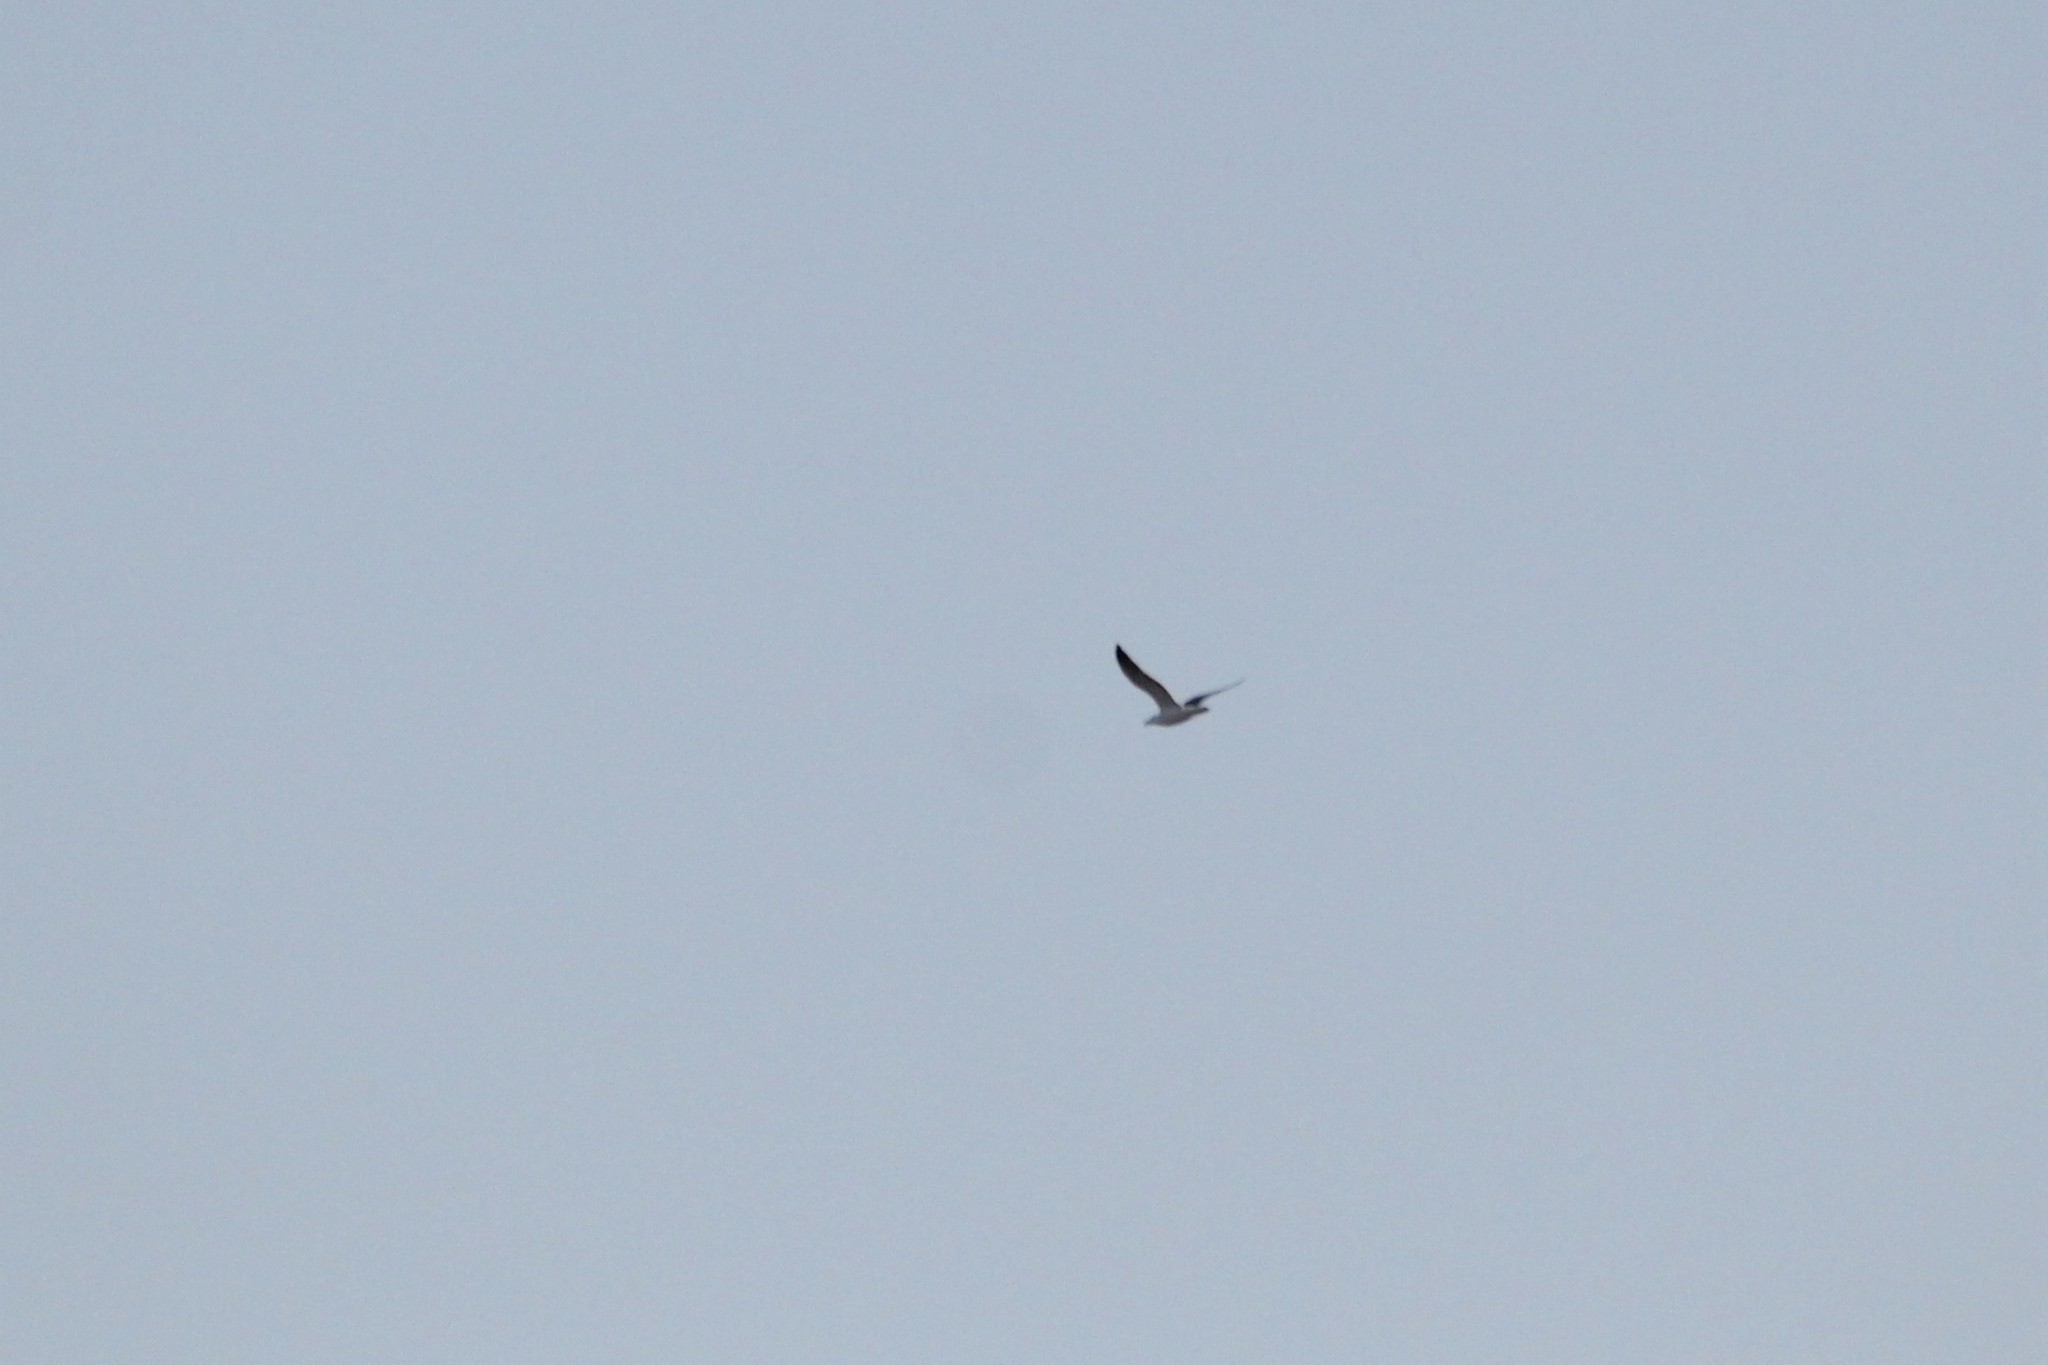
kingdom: Animalia
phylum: Chordata
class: Aves
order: Charadriiformes
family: Laridae
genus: Larus
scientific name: Larus marinus
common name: Great black-backed gull
